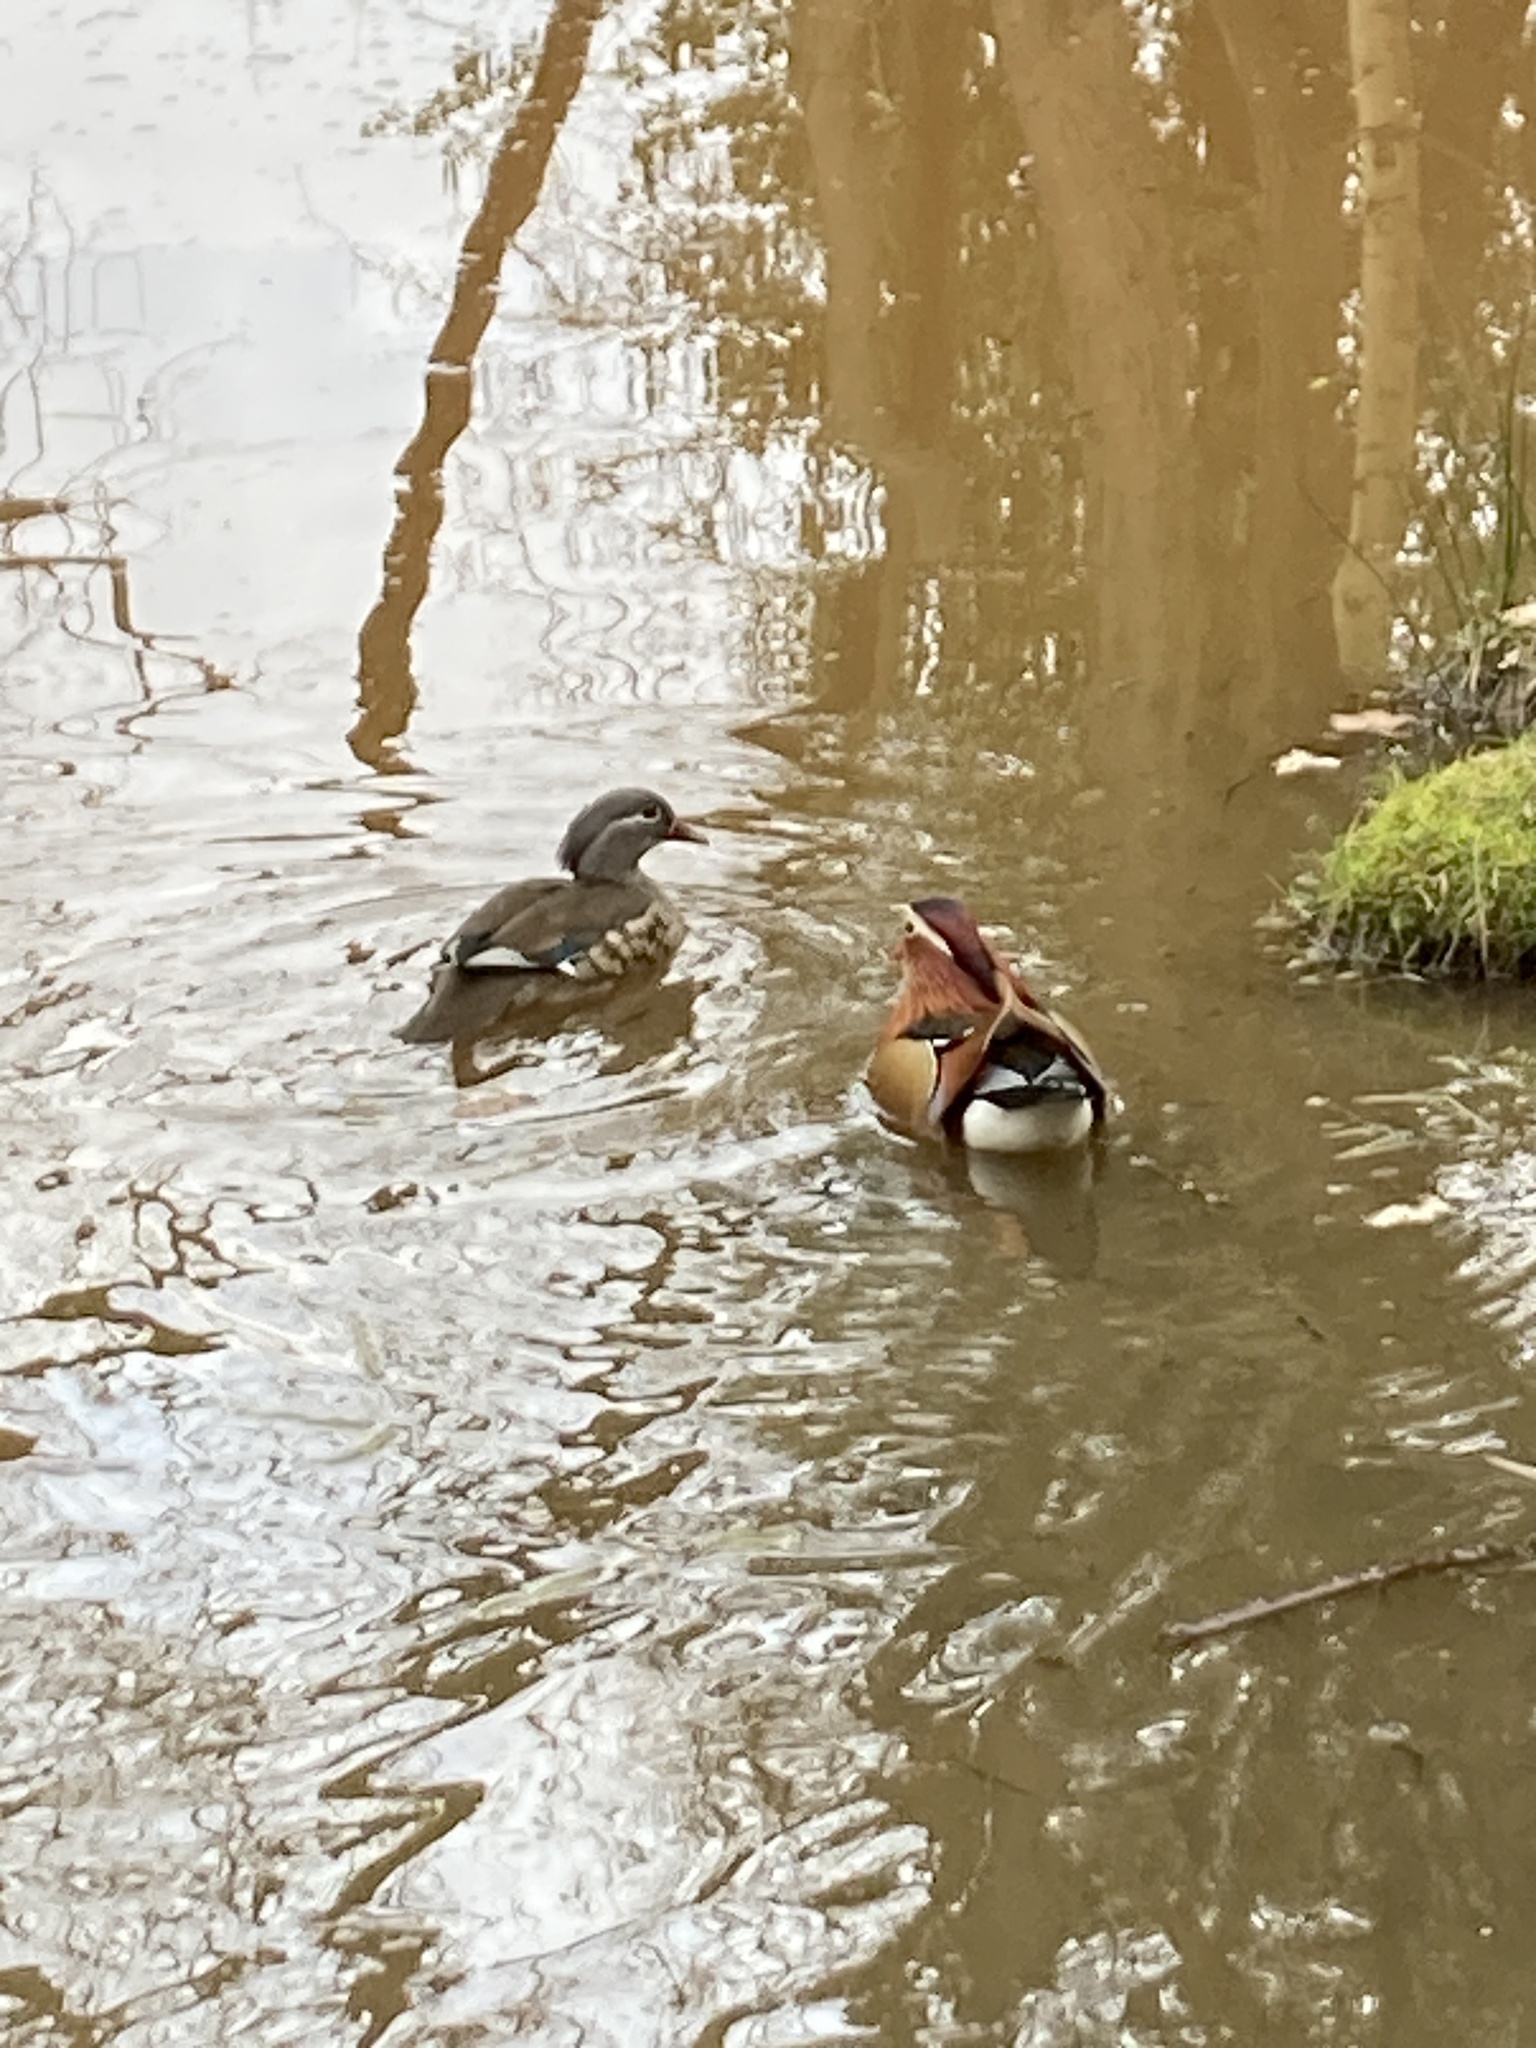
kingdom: Animalia
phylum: Chordata
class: Aves
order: Anseriformes
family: Anatidae
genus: Aix
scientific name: Aix galericulata
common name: Mandarin duck
